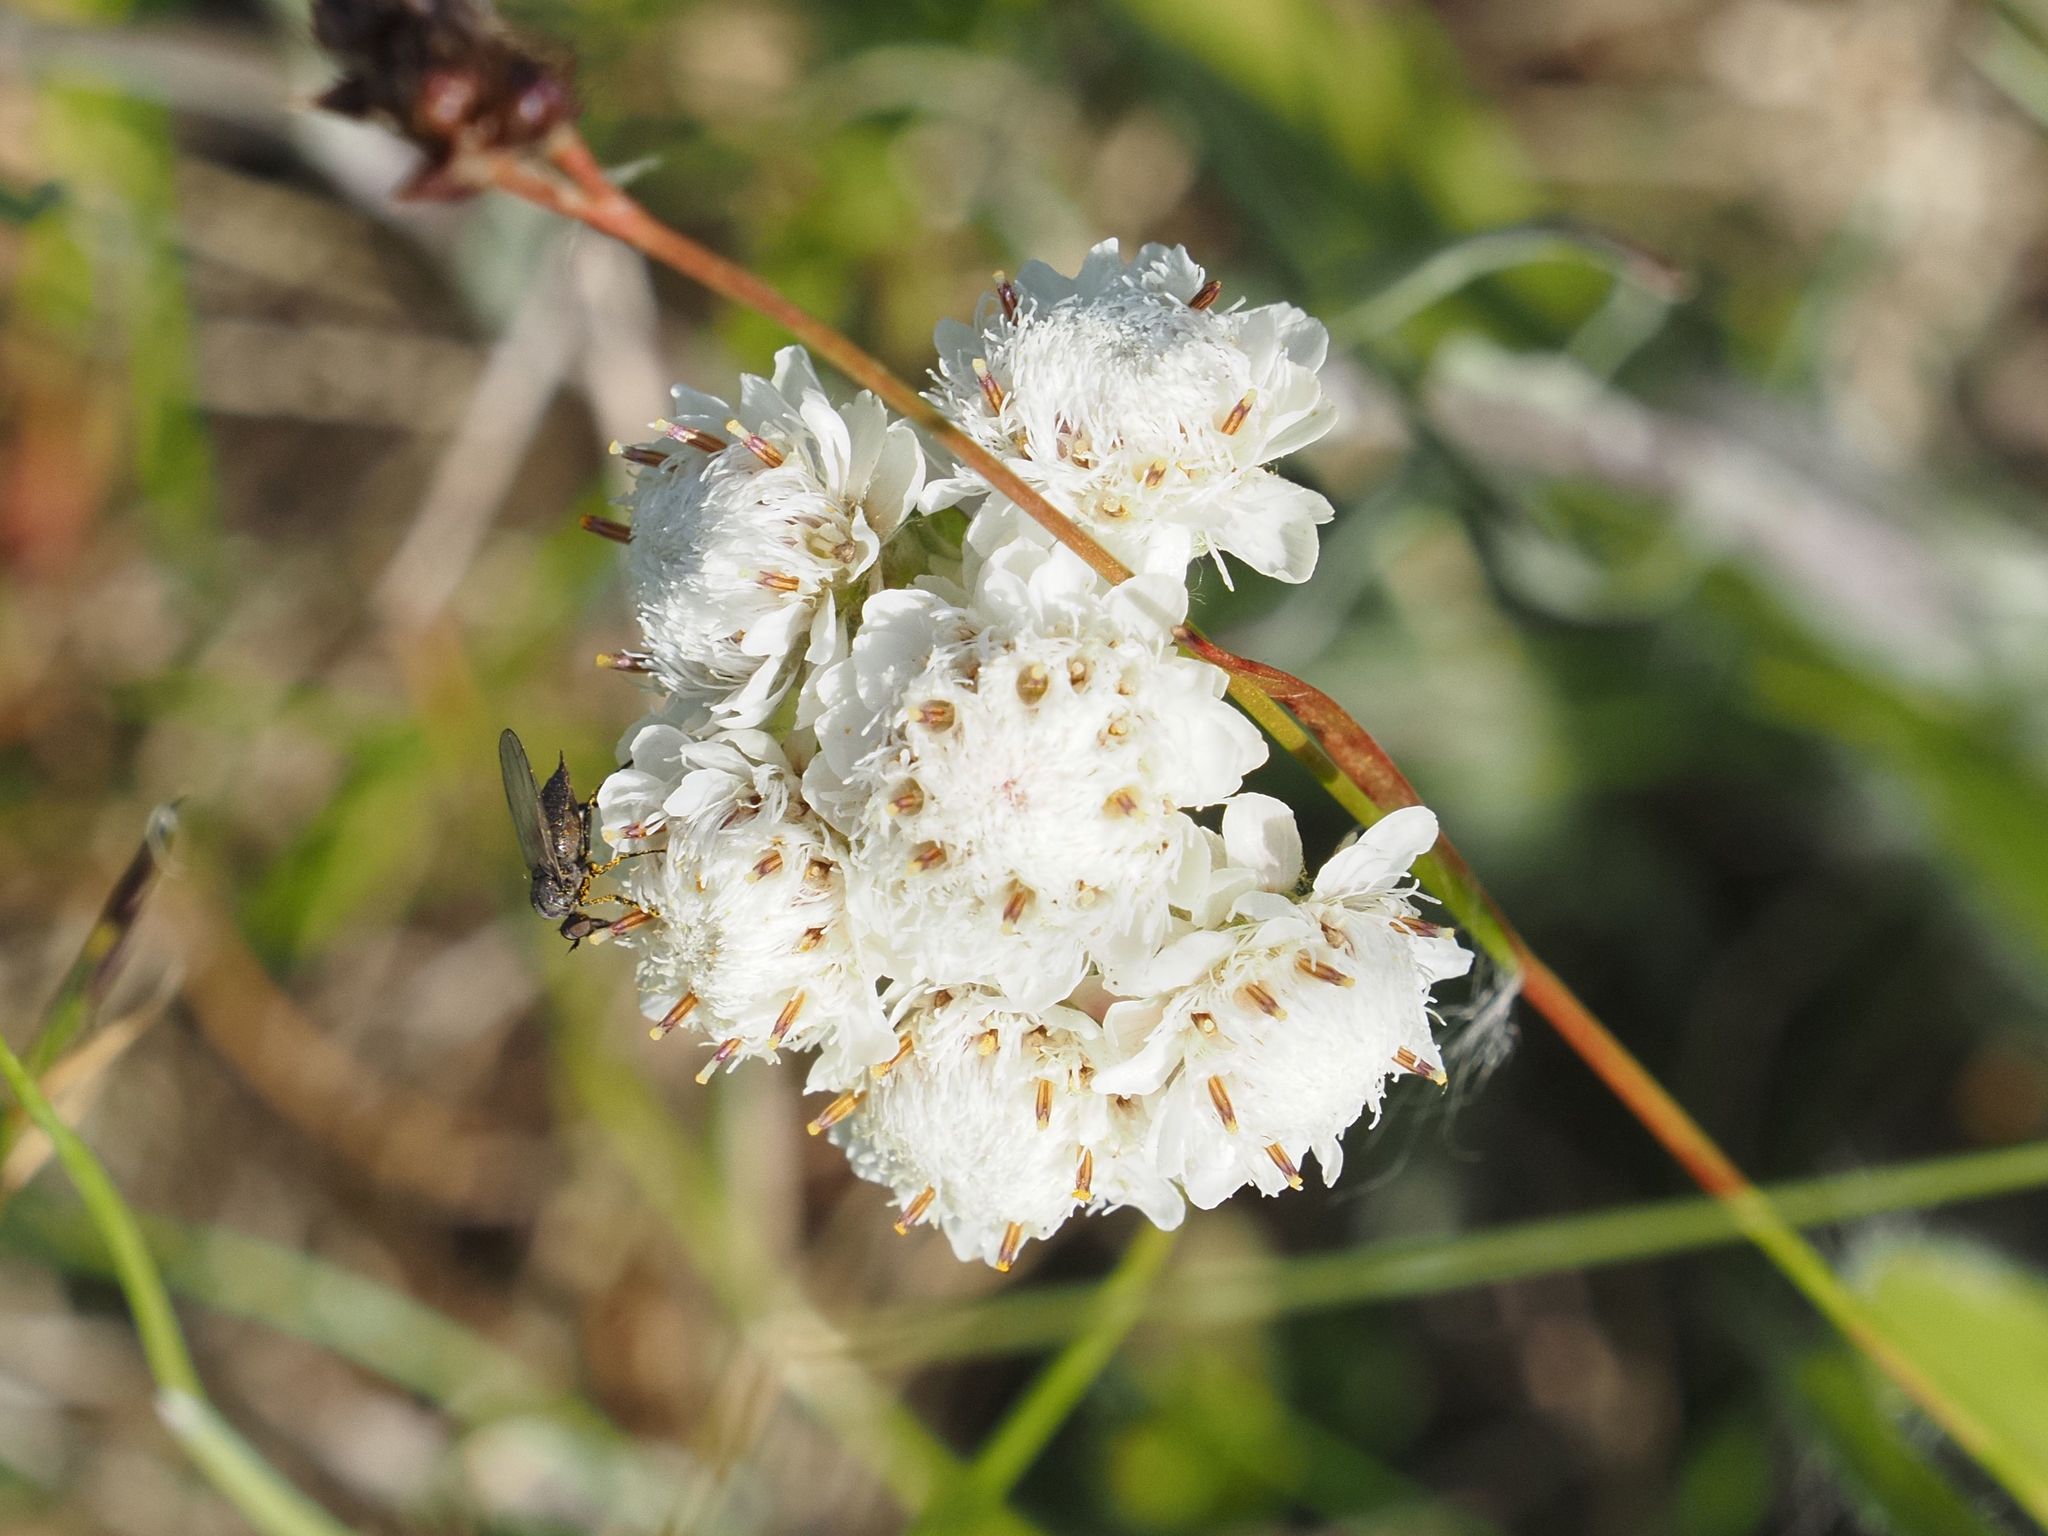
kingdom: Plantae
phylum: Tracheophyta
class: Magnoliopsida
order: Asterales
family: Asteraceae
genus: Antennaria
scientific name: Antennaria dioica
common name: Mountain everlasting
